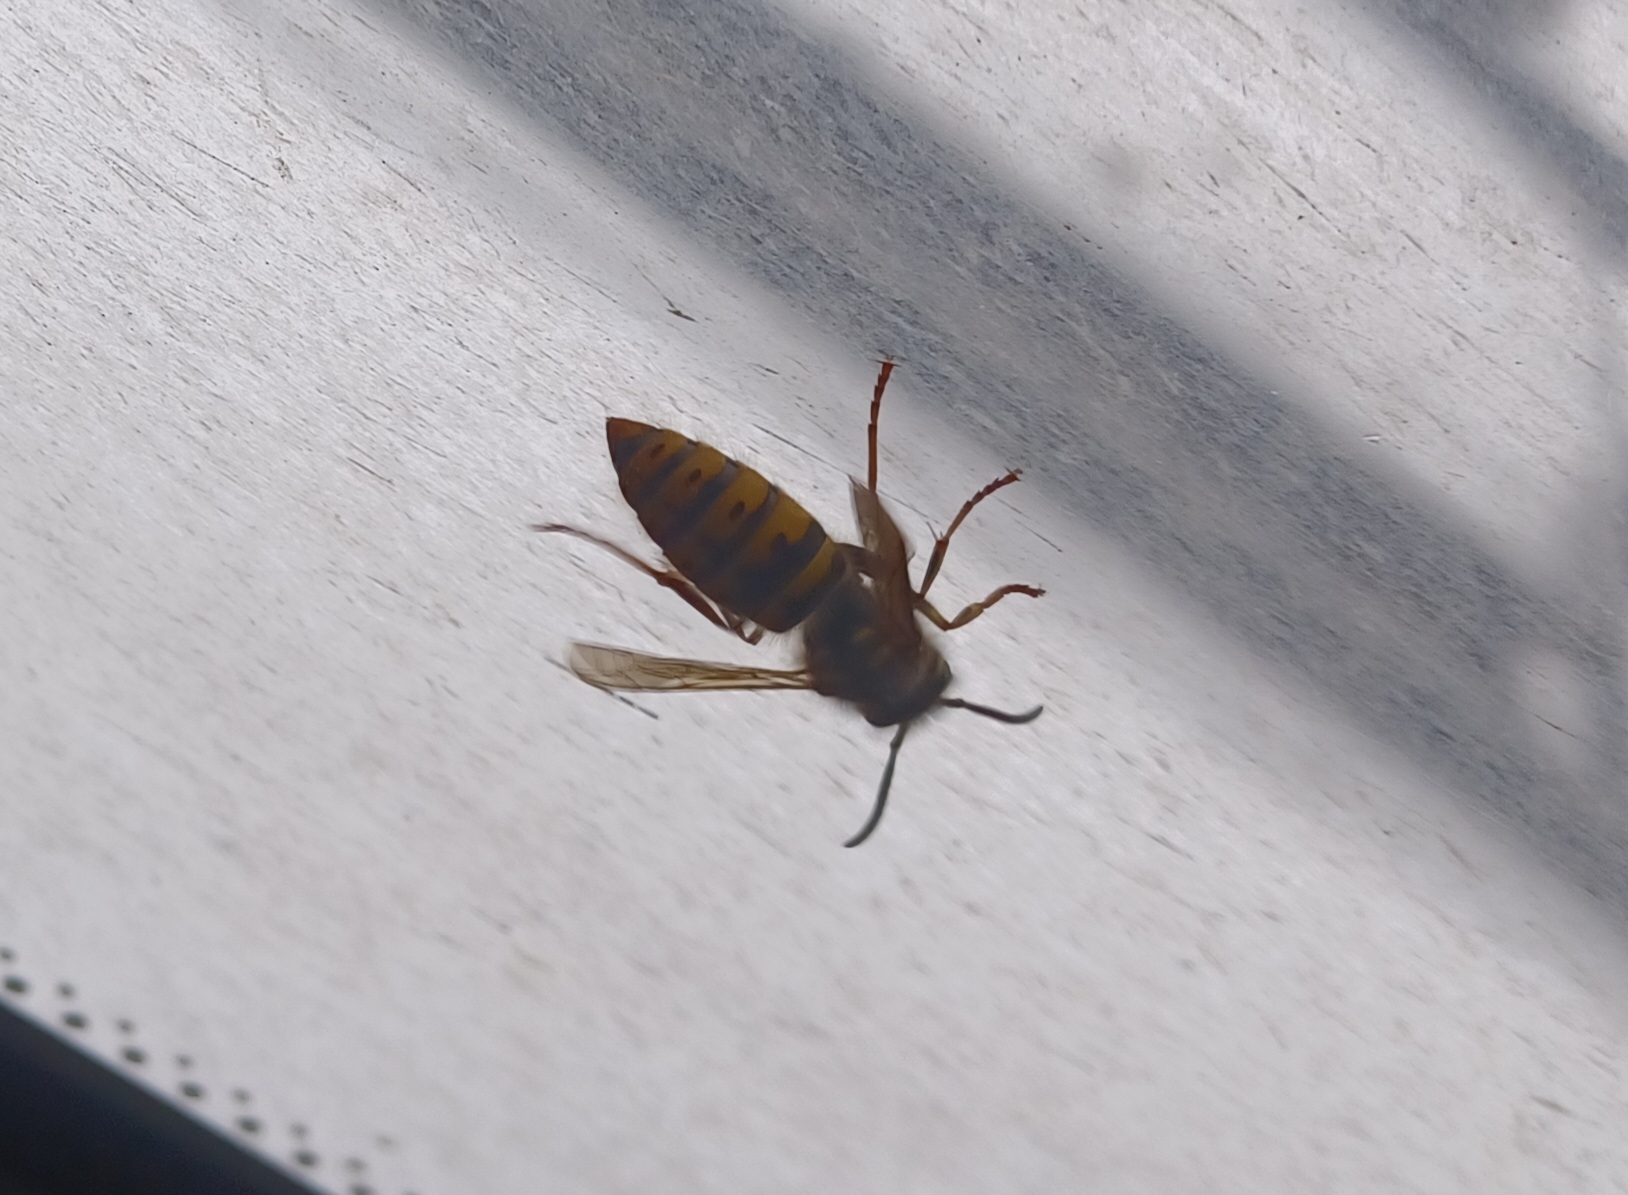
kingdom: Animalia
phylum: Arthropoda
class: Insecta
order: Hymenoptera
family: Vespidae
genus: Vespula
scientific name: Vespula vulgaris
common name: Common wasp
